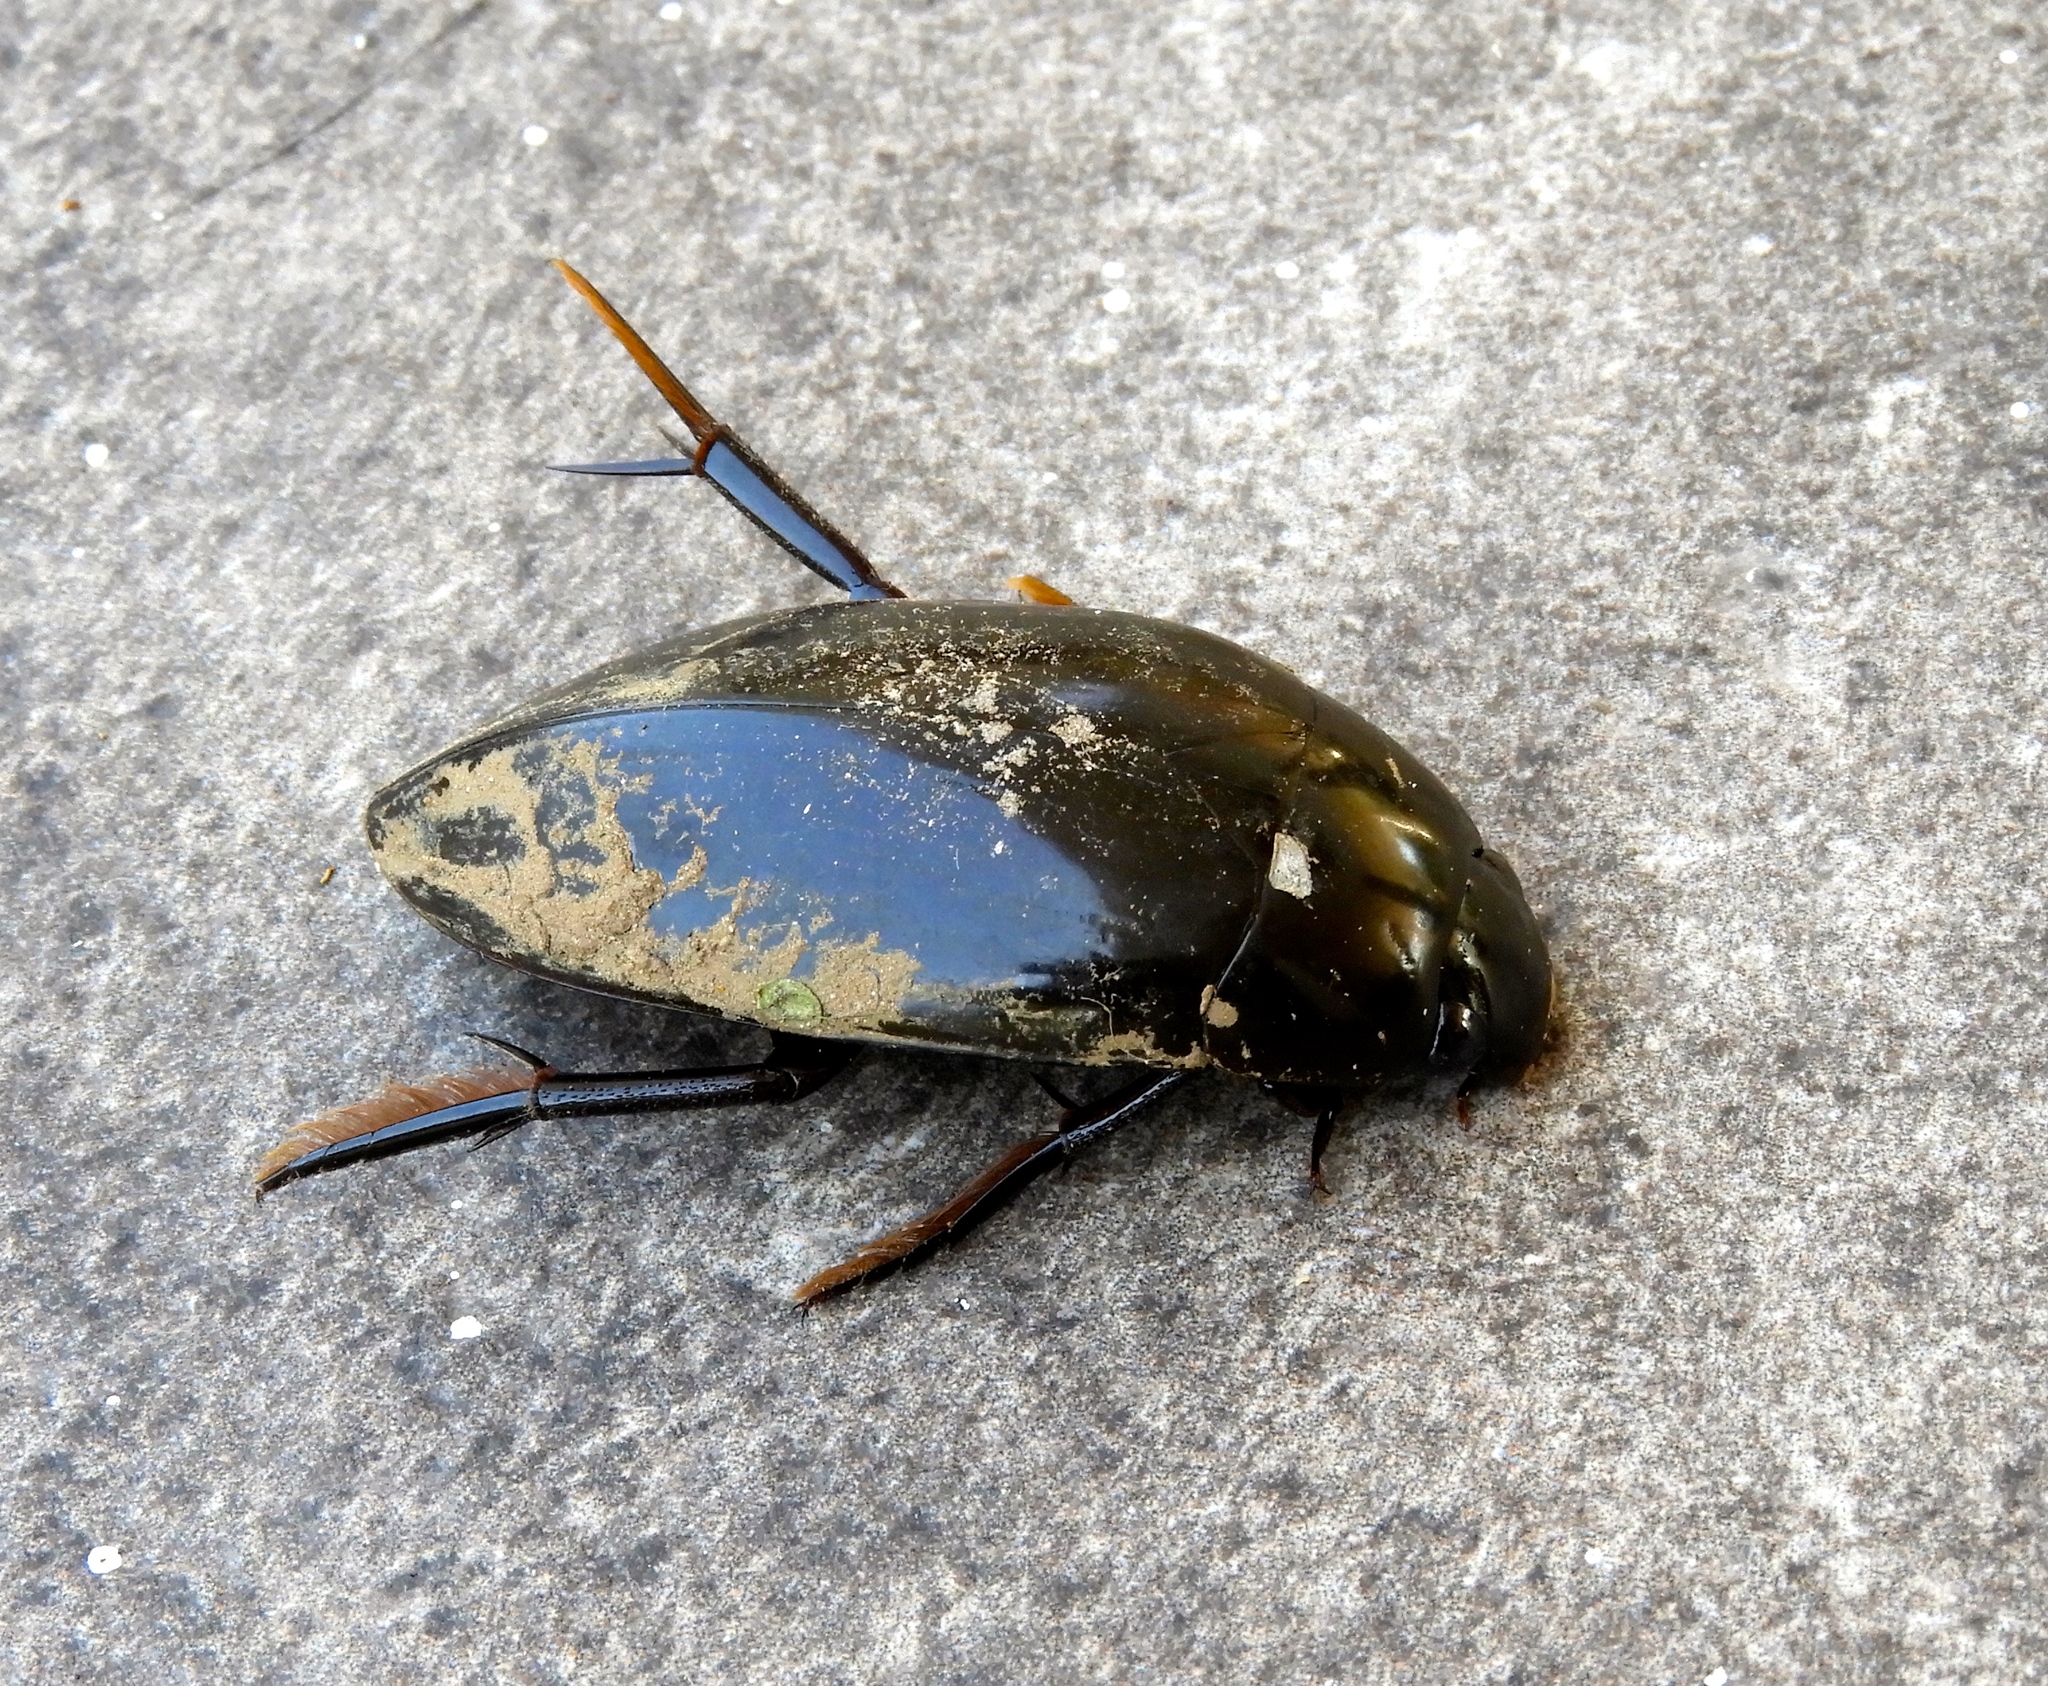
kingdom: Animalia
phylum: Arthropoda
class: Insecta
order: Coleoptera
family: Hydrophilidae
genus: Hydrophilus
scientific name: Hydrophilus
